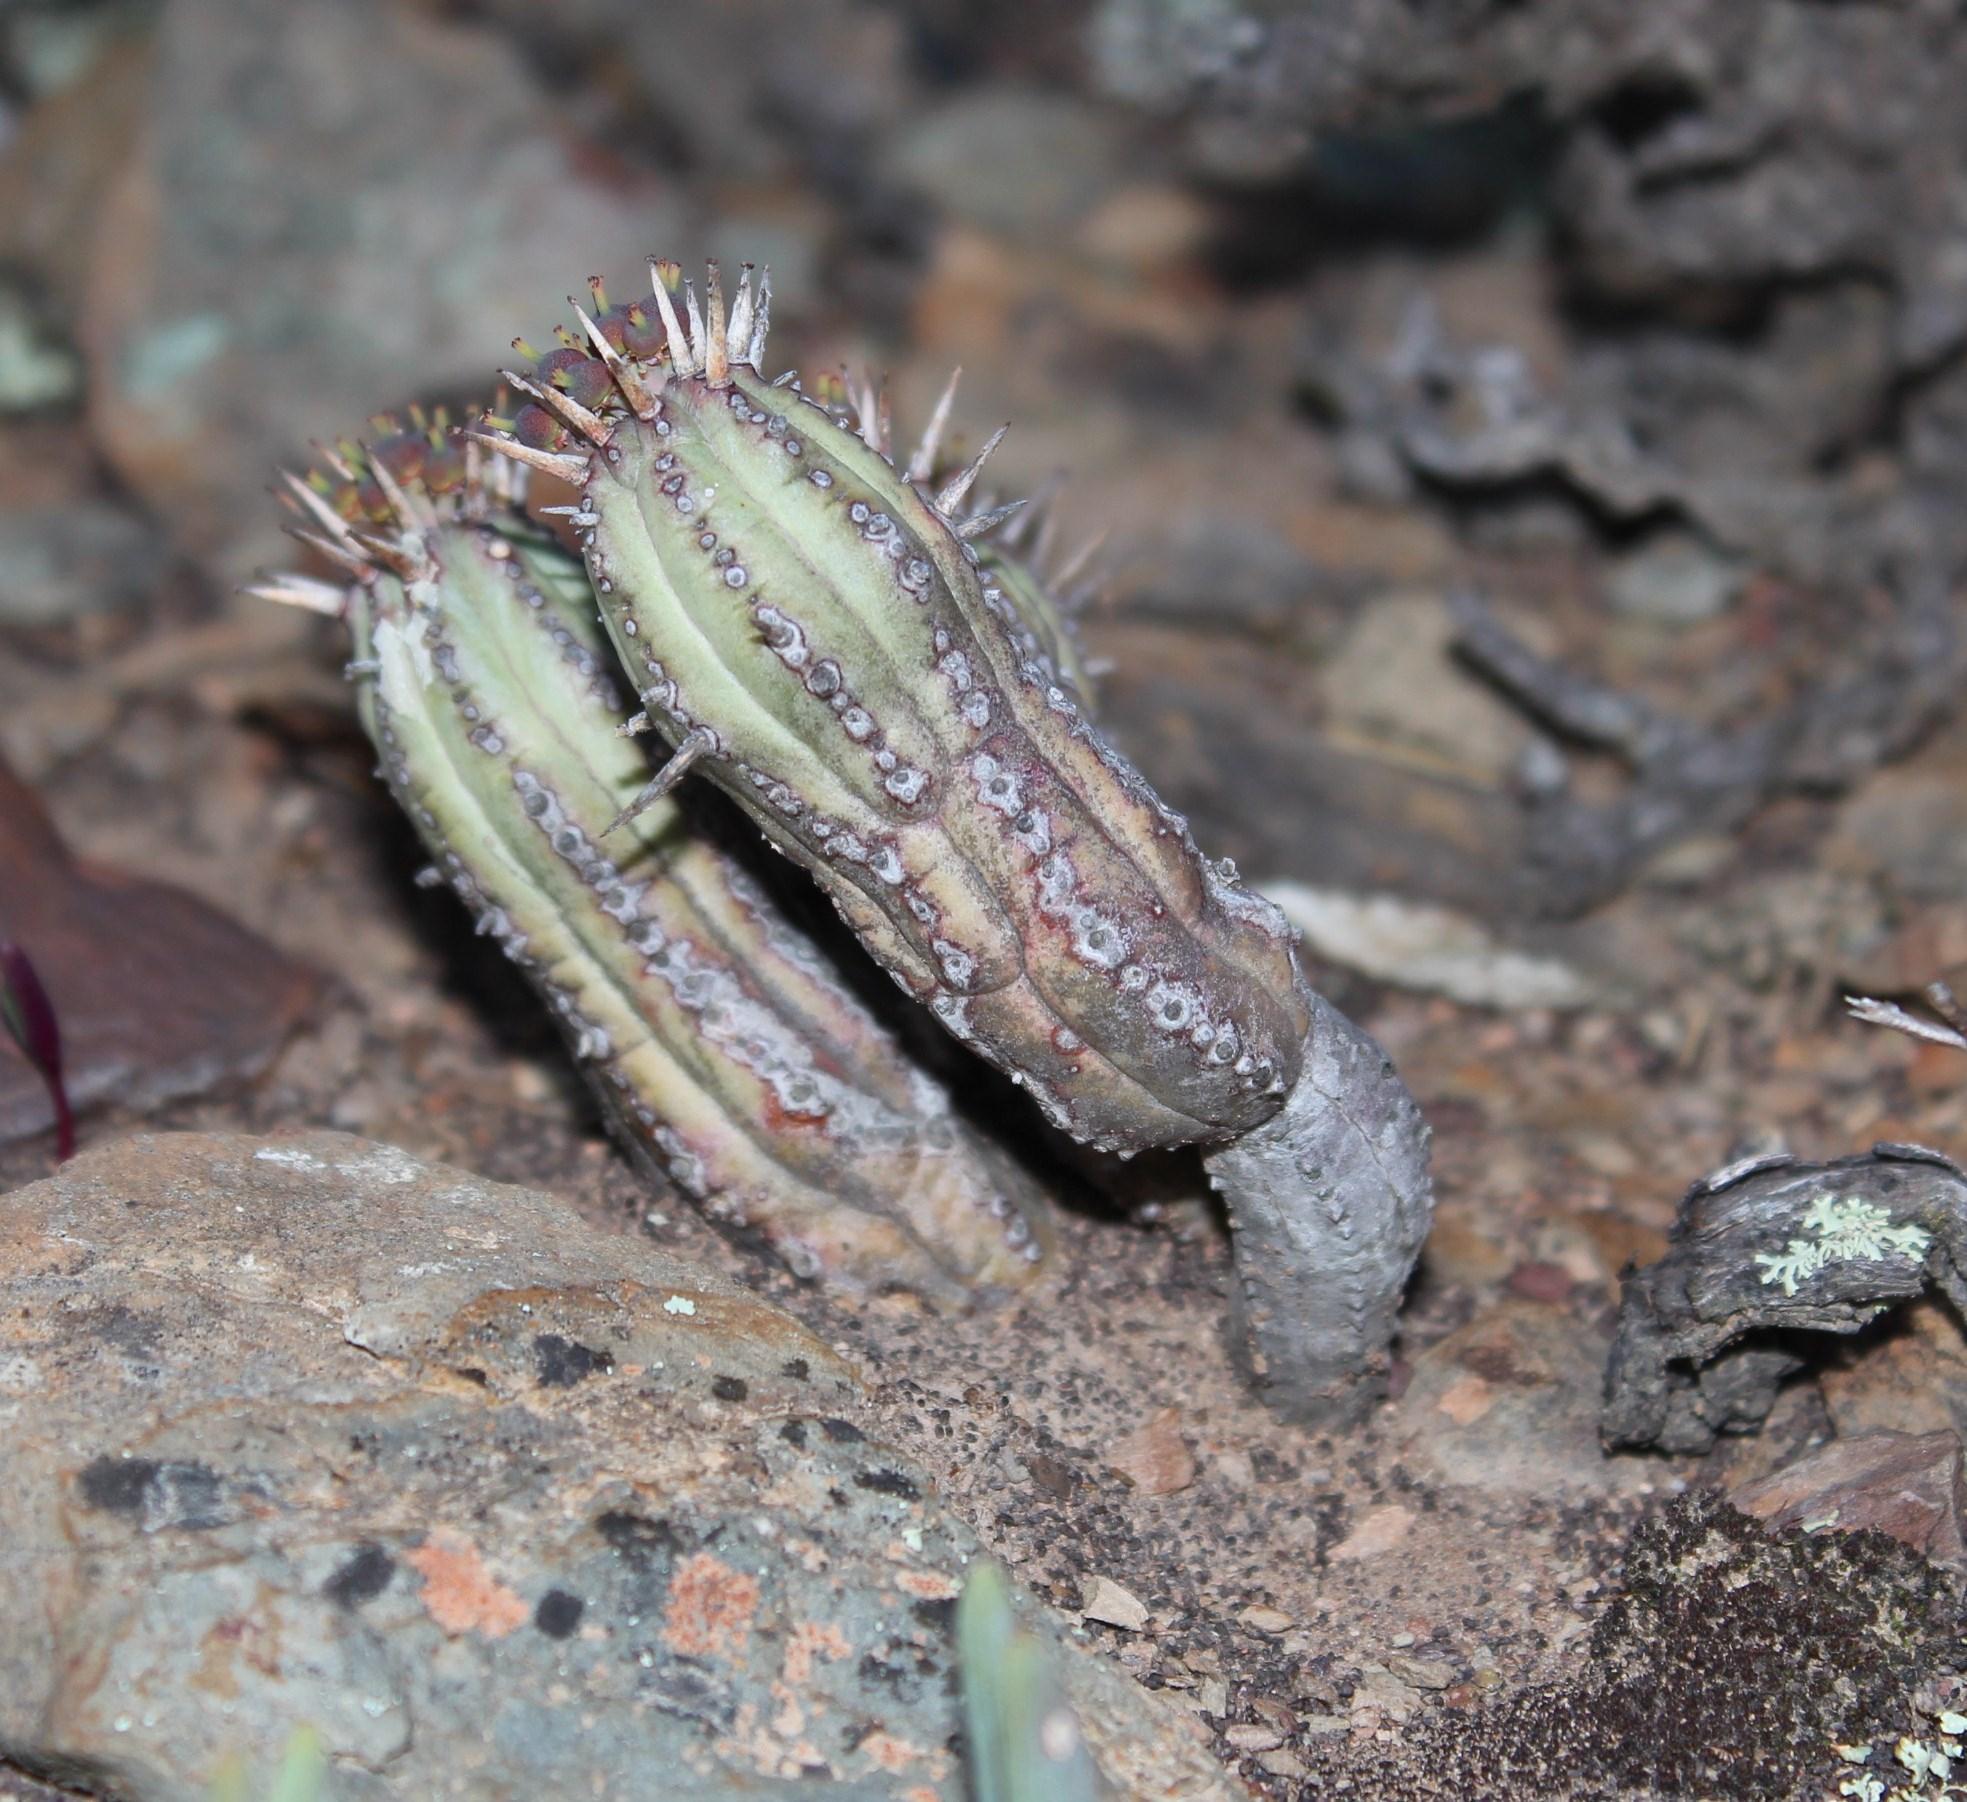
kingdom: Plantae
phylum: Tracheophyta
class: Magnoliopsida
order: Malpighiales
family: Euphorbiaceae
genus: Euphorbia
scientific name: Euphorbia nesemannii
